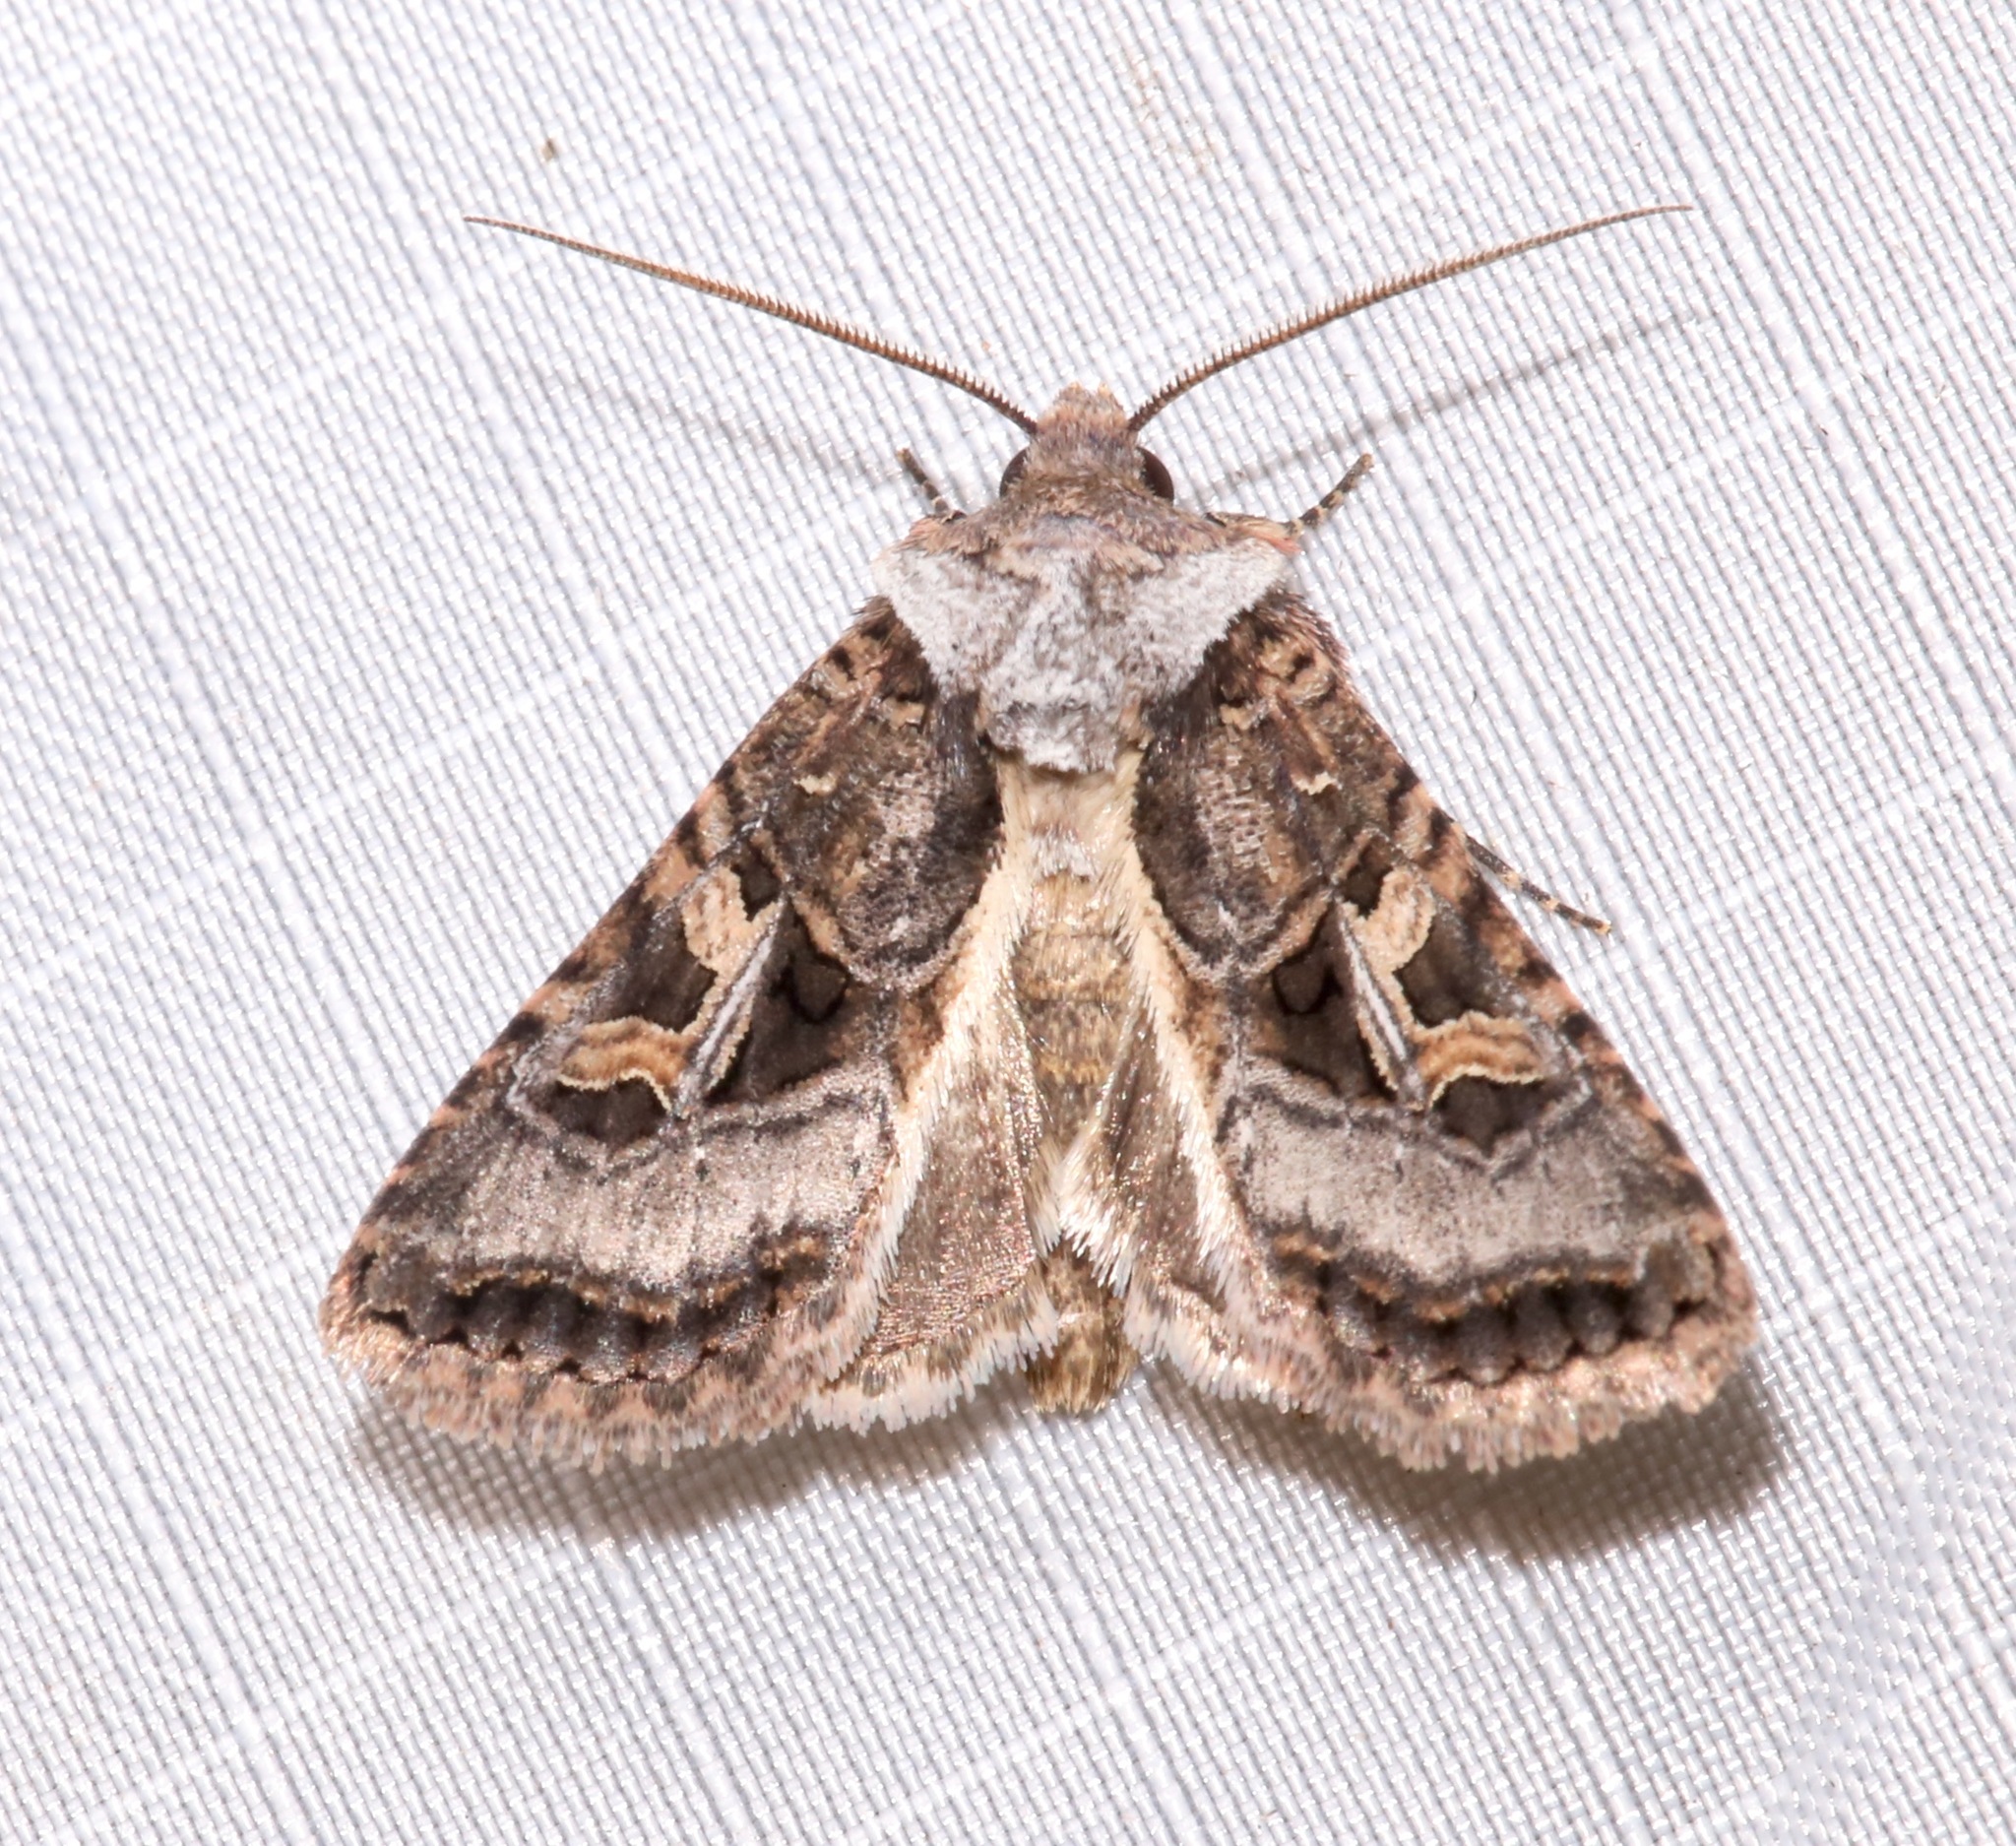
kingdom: Animalia
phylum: Arthropoda
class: Insecta
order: Lepidoptera
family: Noctuidae
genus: Hyperepia
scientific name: Hyperepia jugifera
